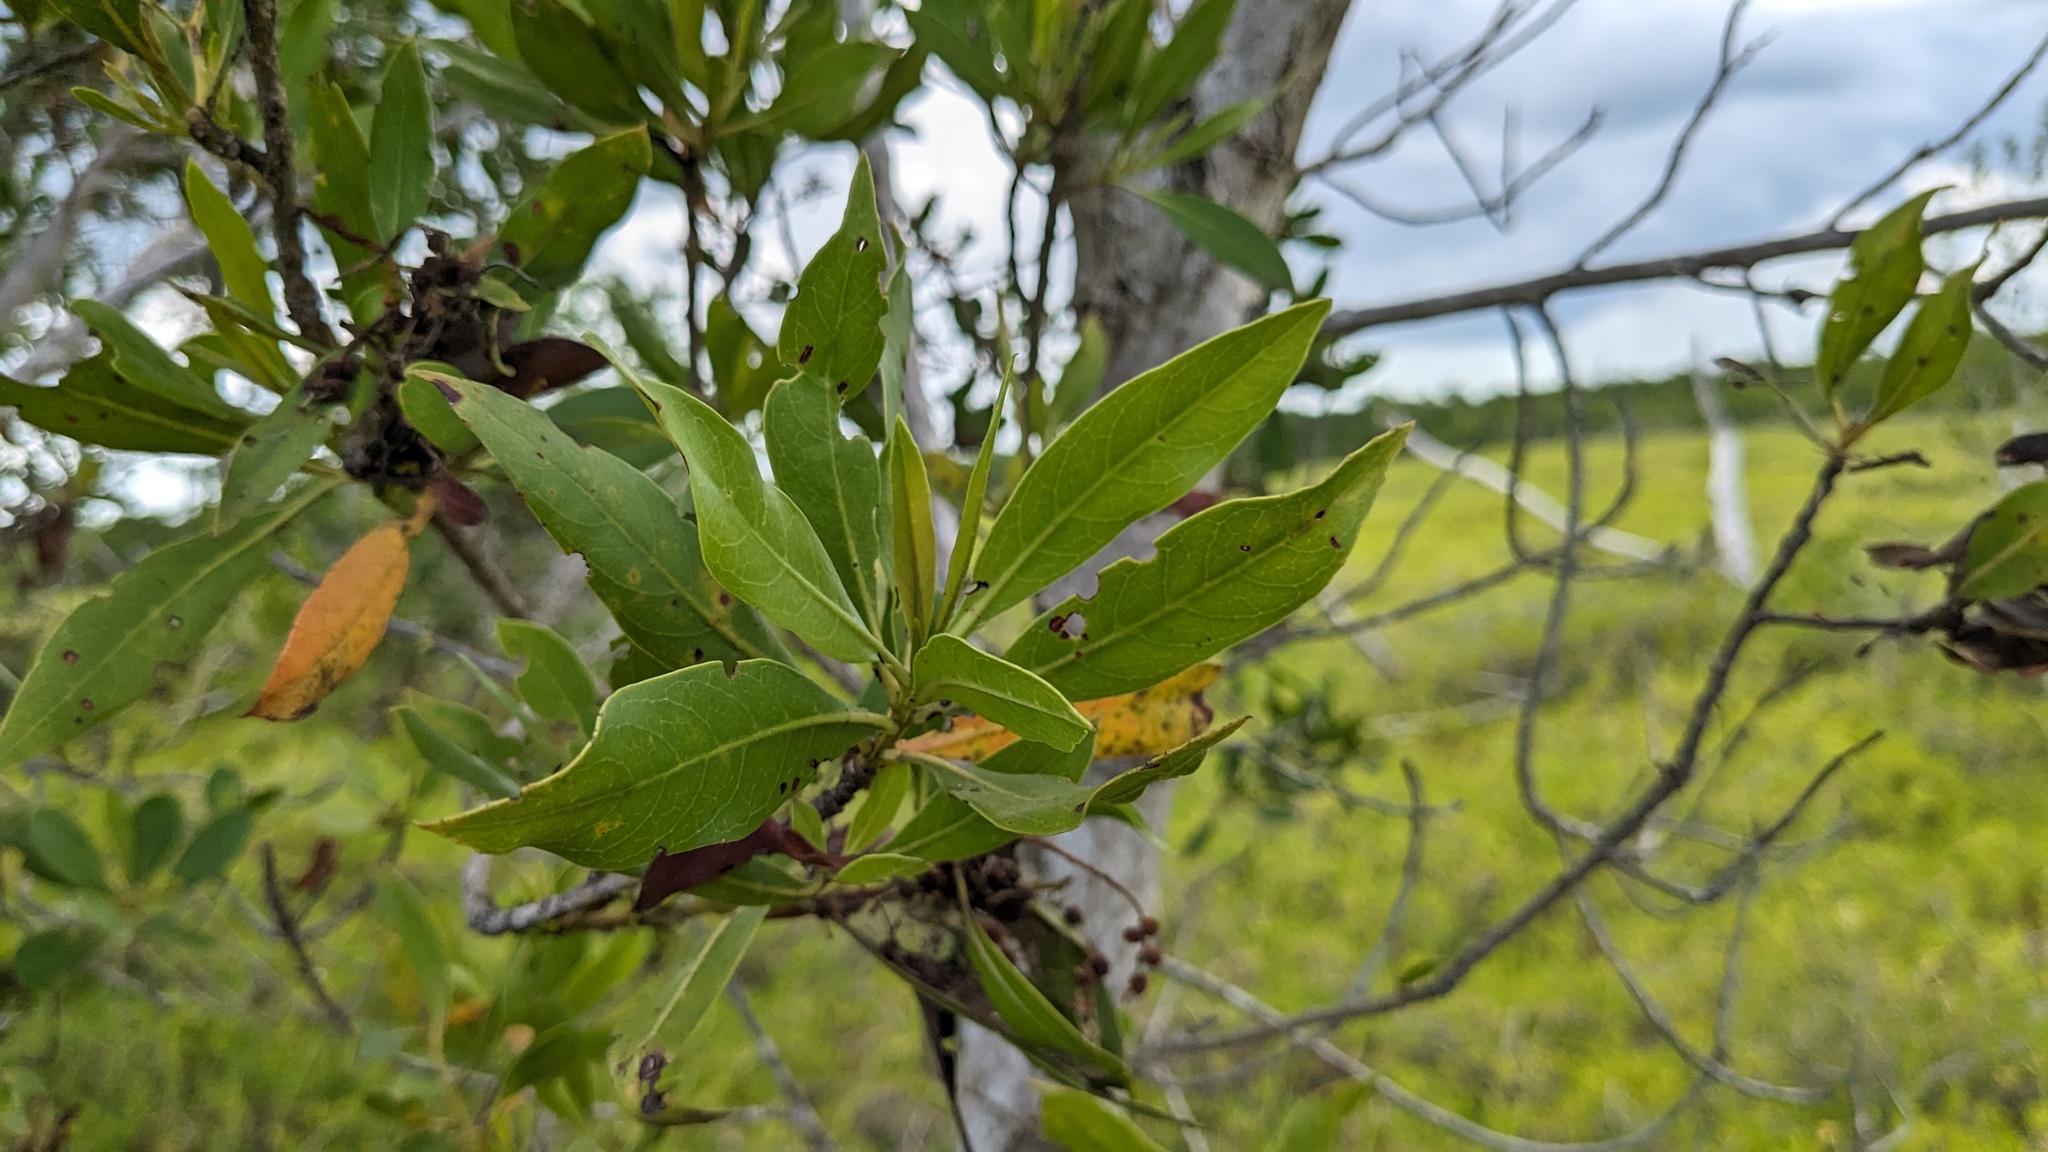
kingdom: Plantae
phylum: Tracheophyta
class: Magnoliopsida
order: Myrtales
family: Combretaceae
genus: Conocarpus
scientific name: Conocarpus erectus
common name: Button mangrove
